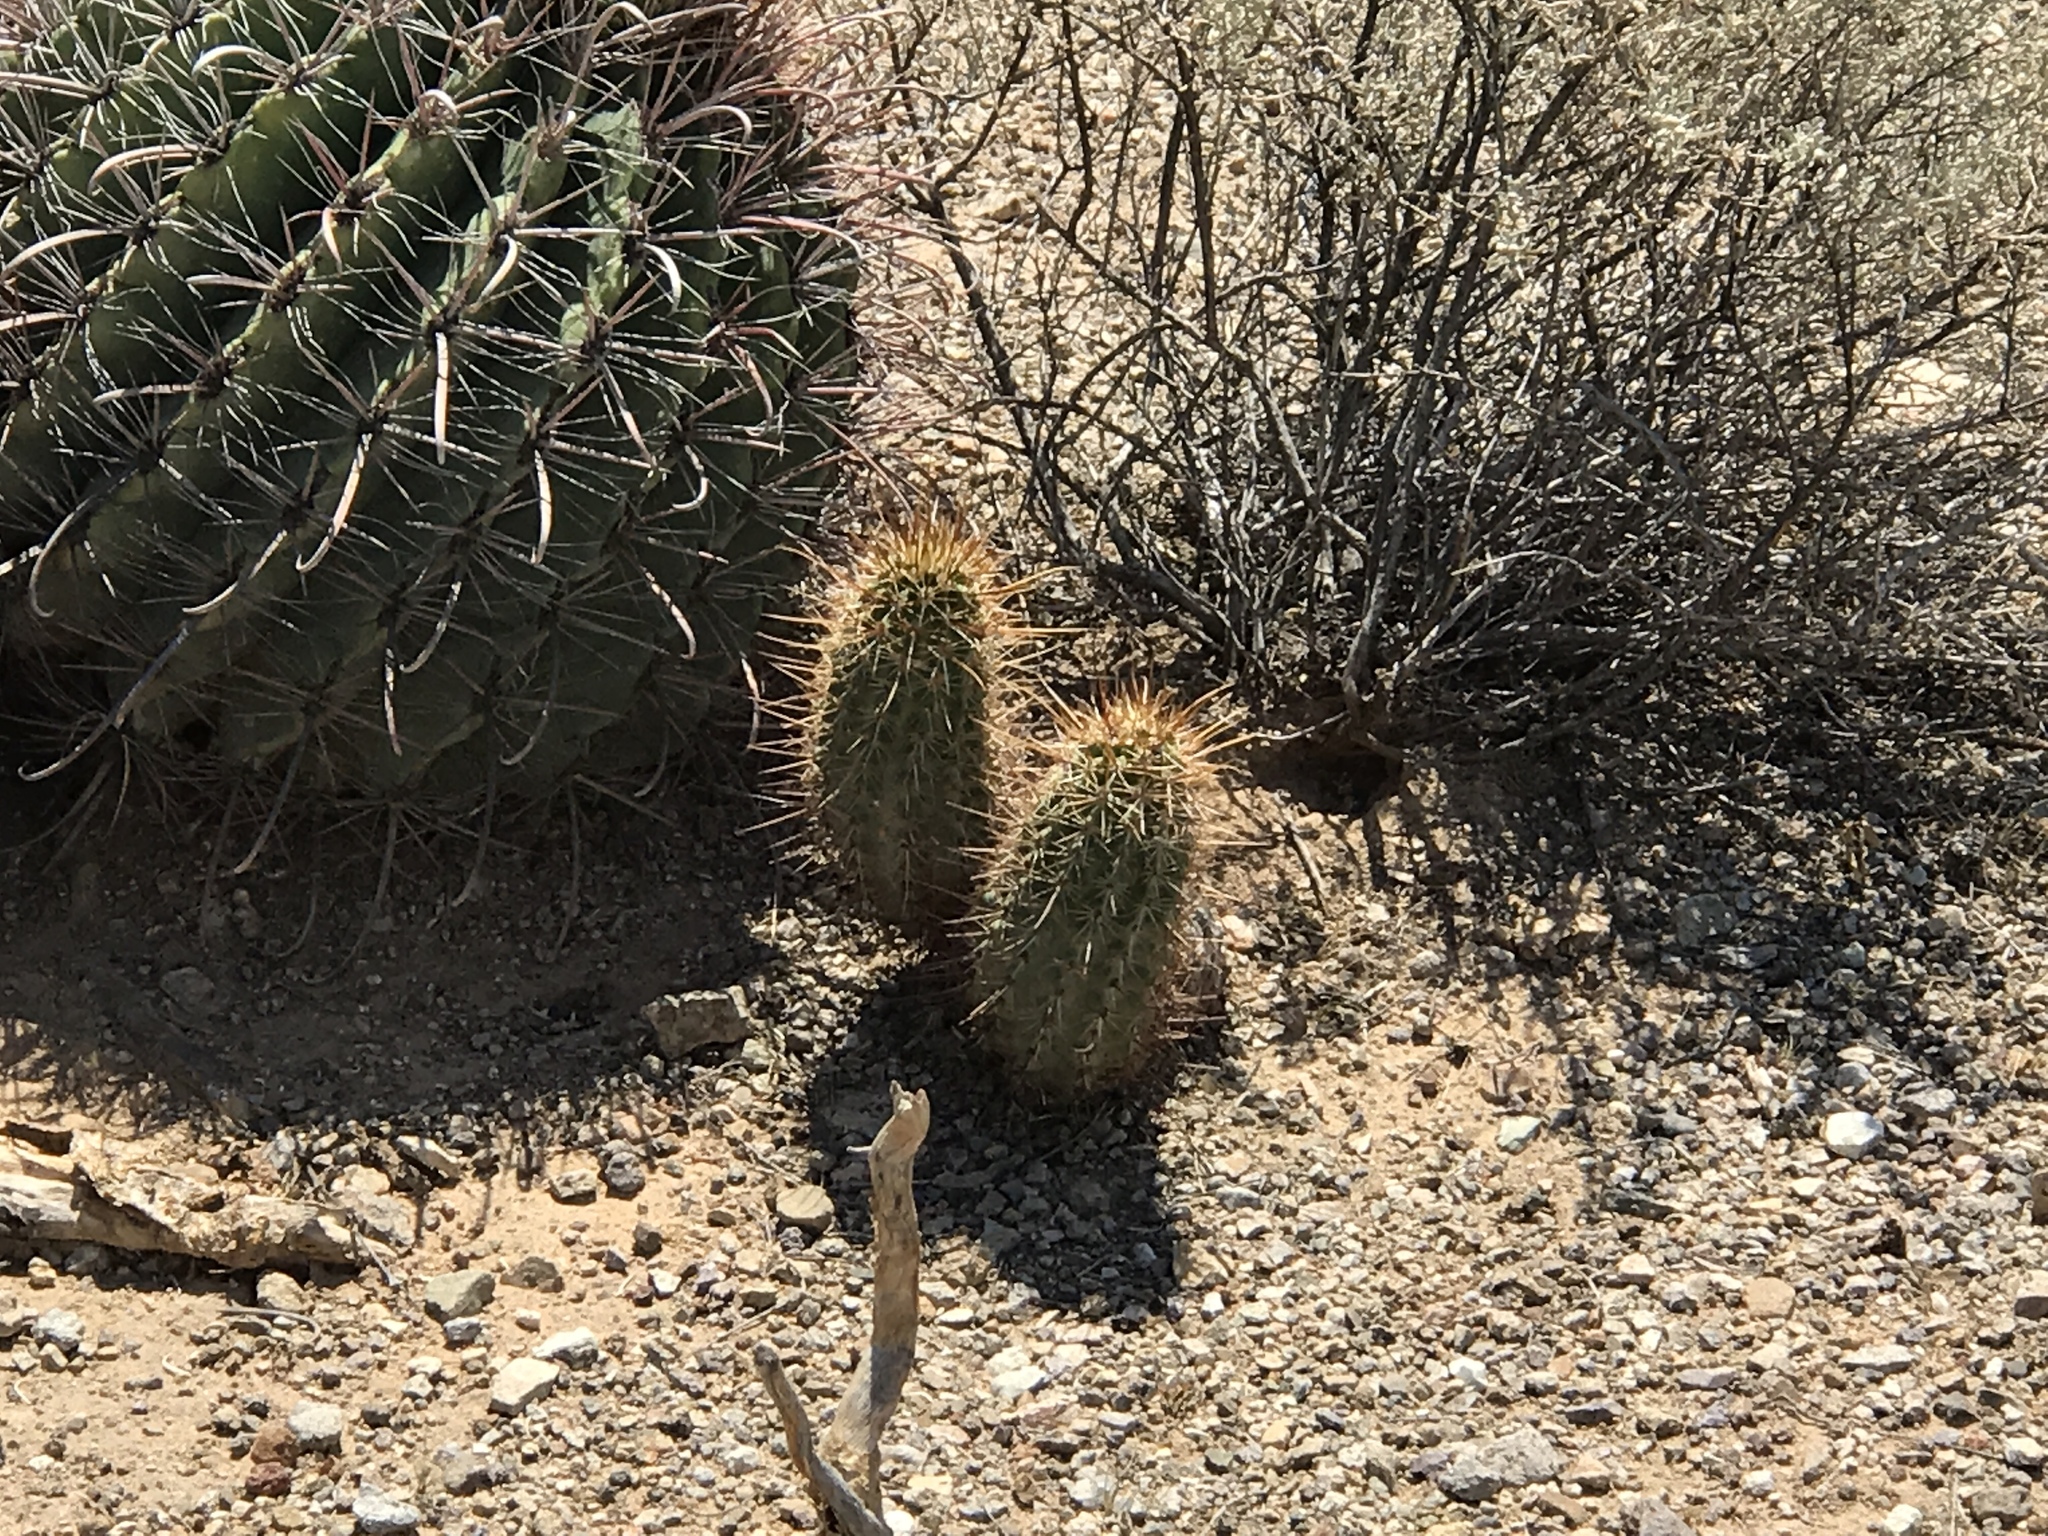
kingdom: Plantae
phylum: Tracheophyta
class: Magnoliopsida
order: Caryophyllales
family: Cactaceae
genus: Echinocereus
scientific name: Echinocereus fasciculatus
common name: Bundle hedgehog
